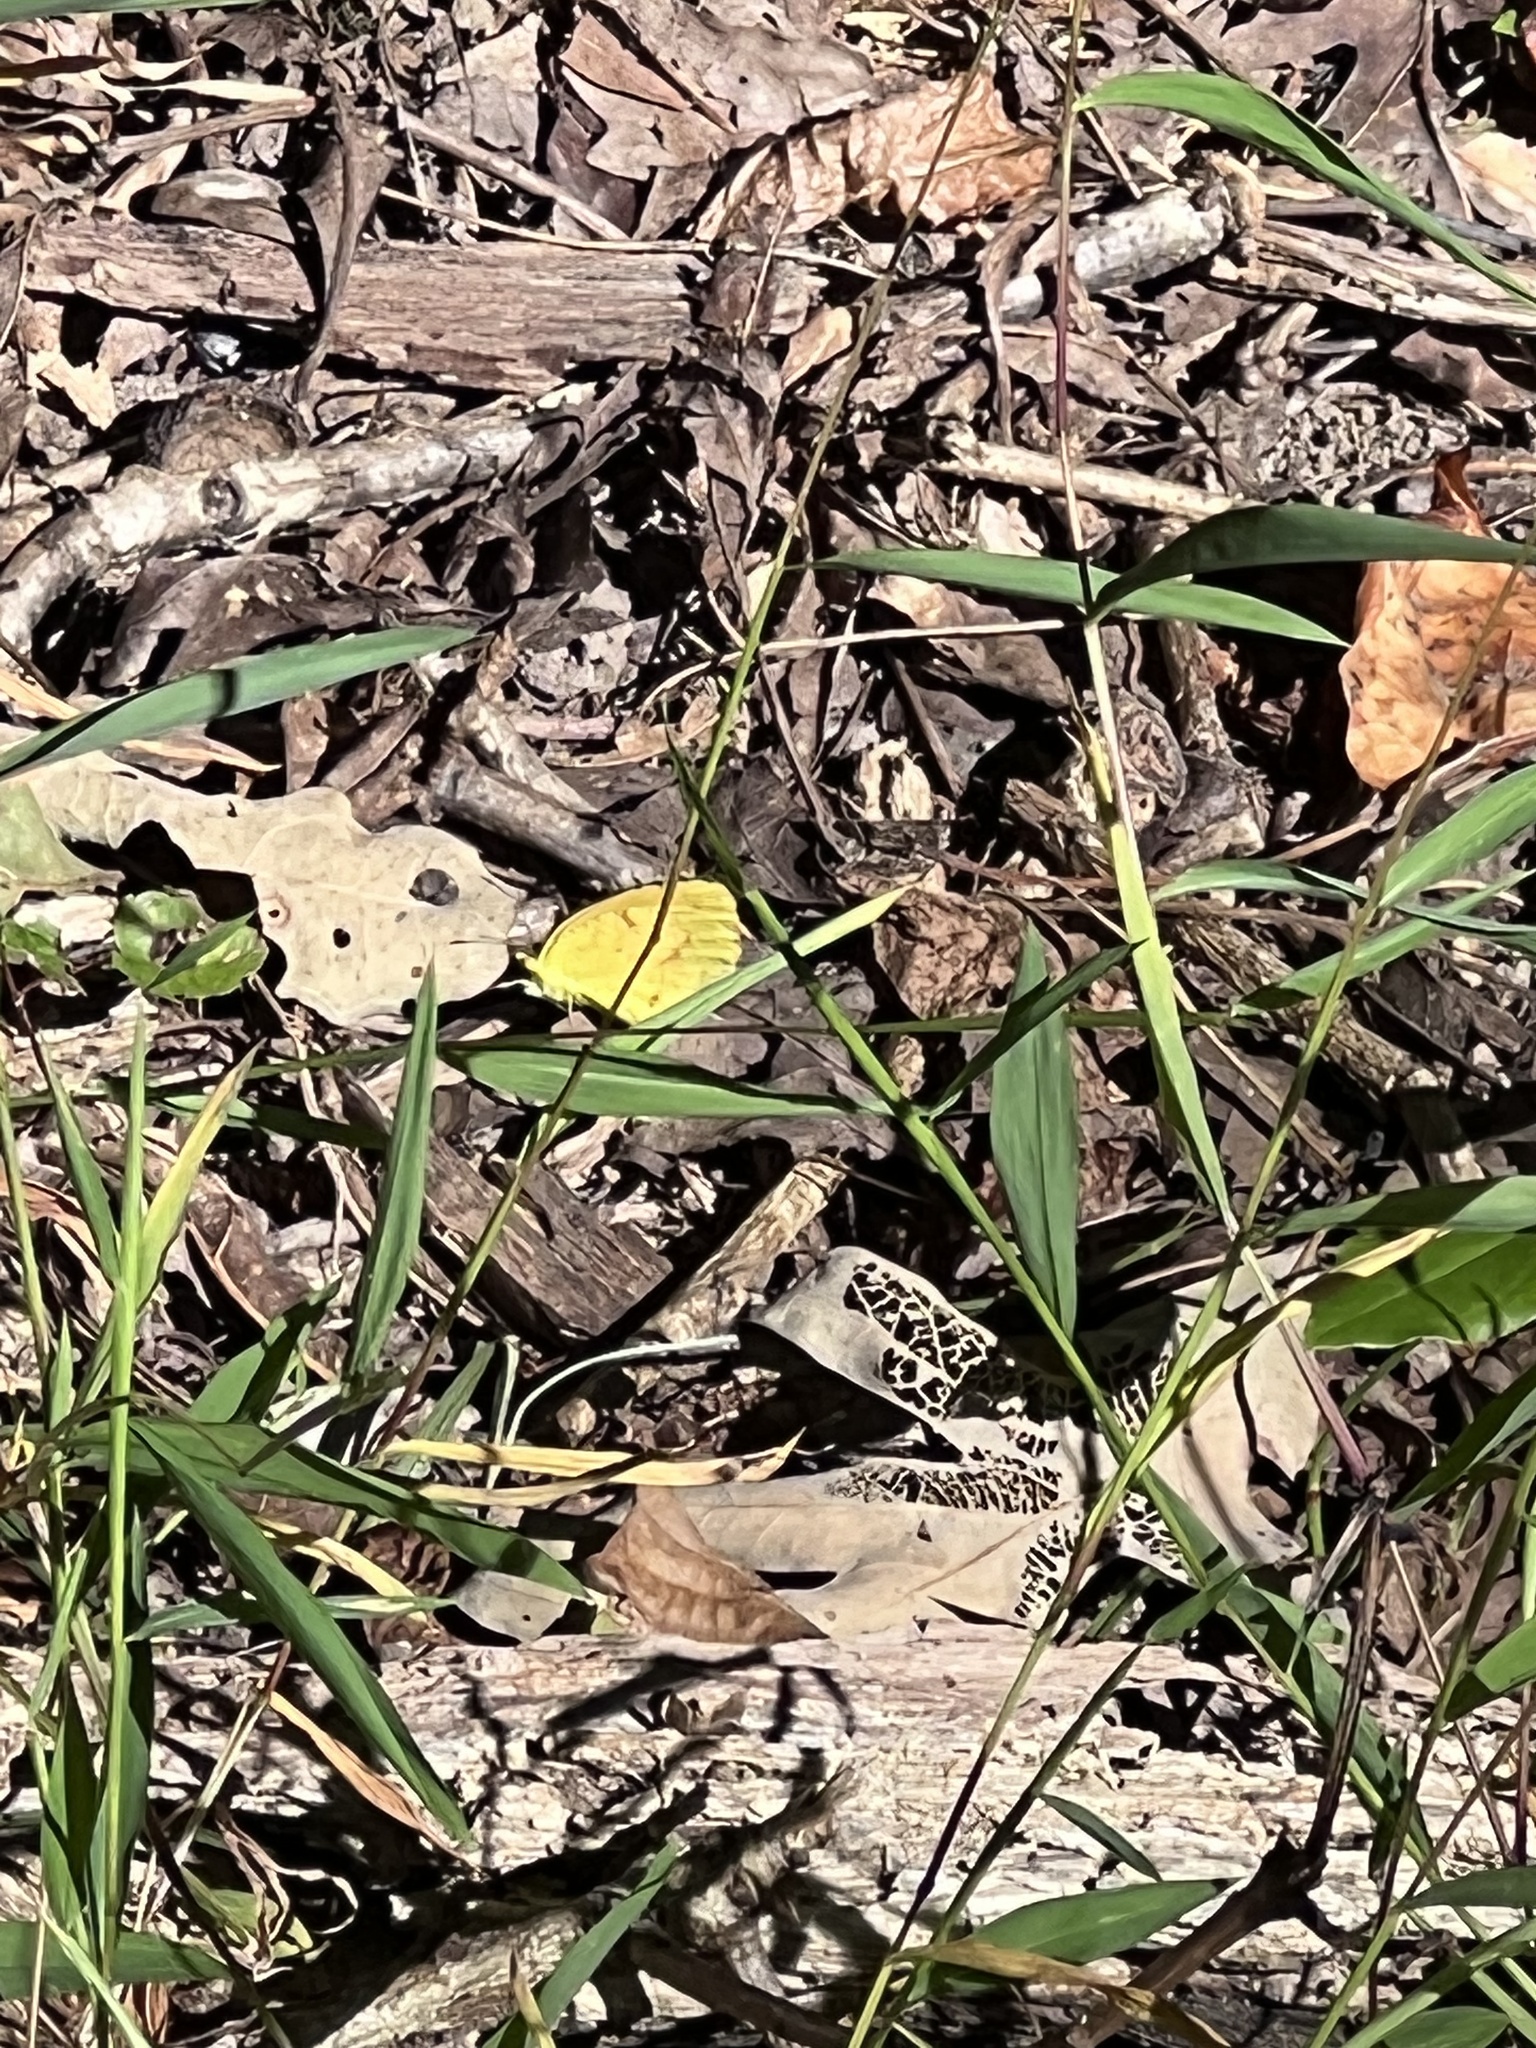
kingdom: Animalia
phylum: Arthropoda
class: Insecta
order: Lepidoptera
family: Pieridae
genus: Abaeis
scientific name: Abaeis nicippe
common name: Sleepy orange
